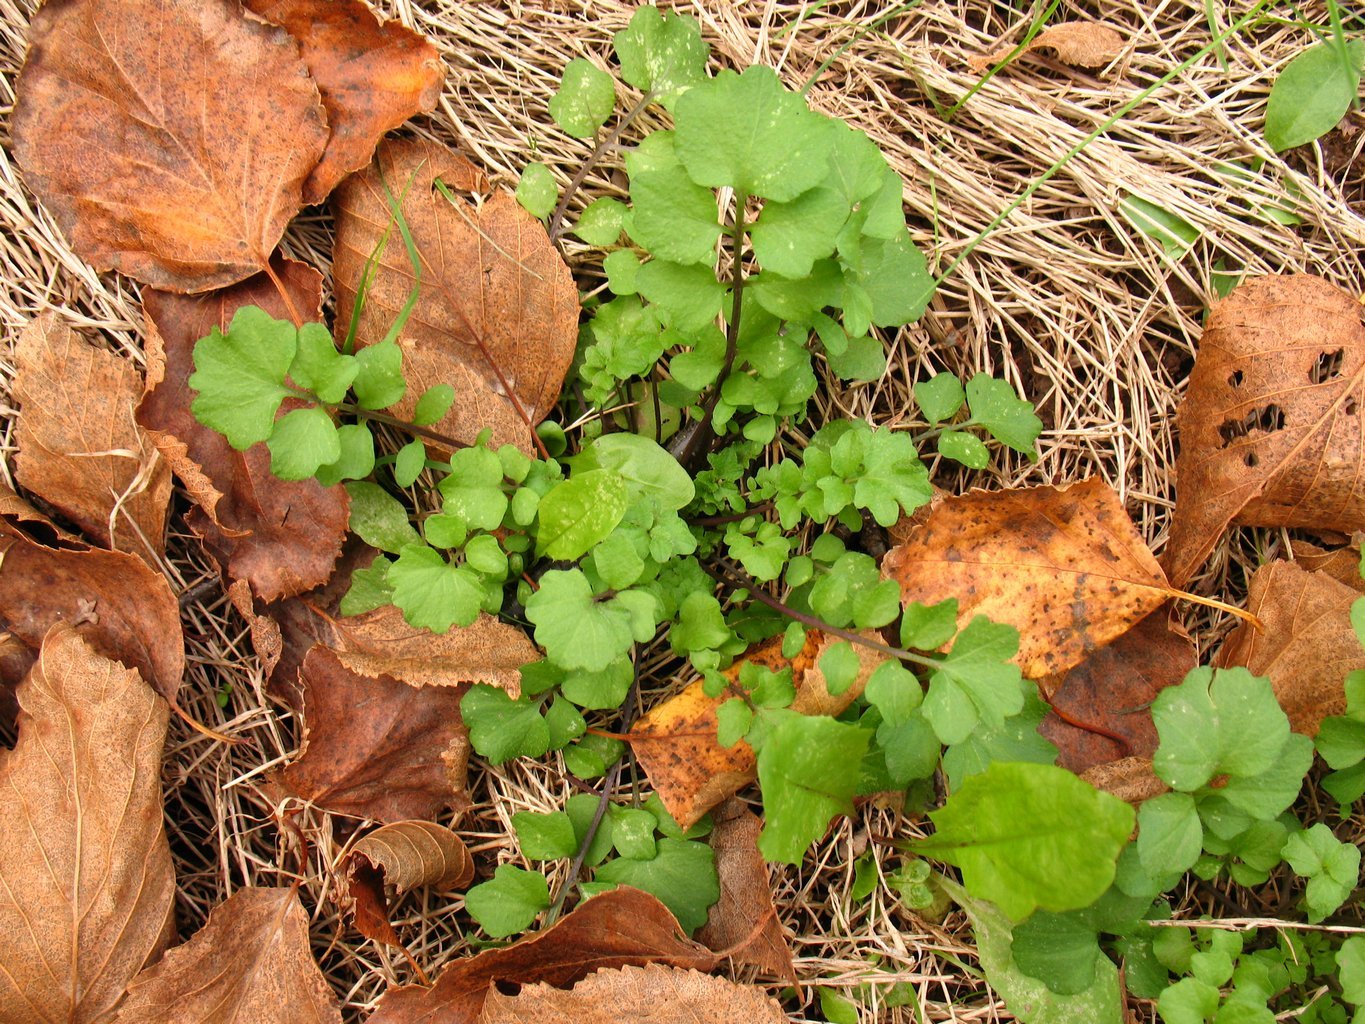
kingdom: Plantae
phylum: Tracheophyta
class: Magnoliopsida
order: Brassicales
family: Brassicaceae
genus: Cardamine
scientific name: Cardamine hirsuta
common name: Hairy bittercress
